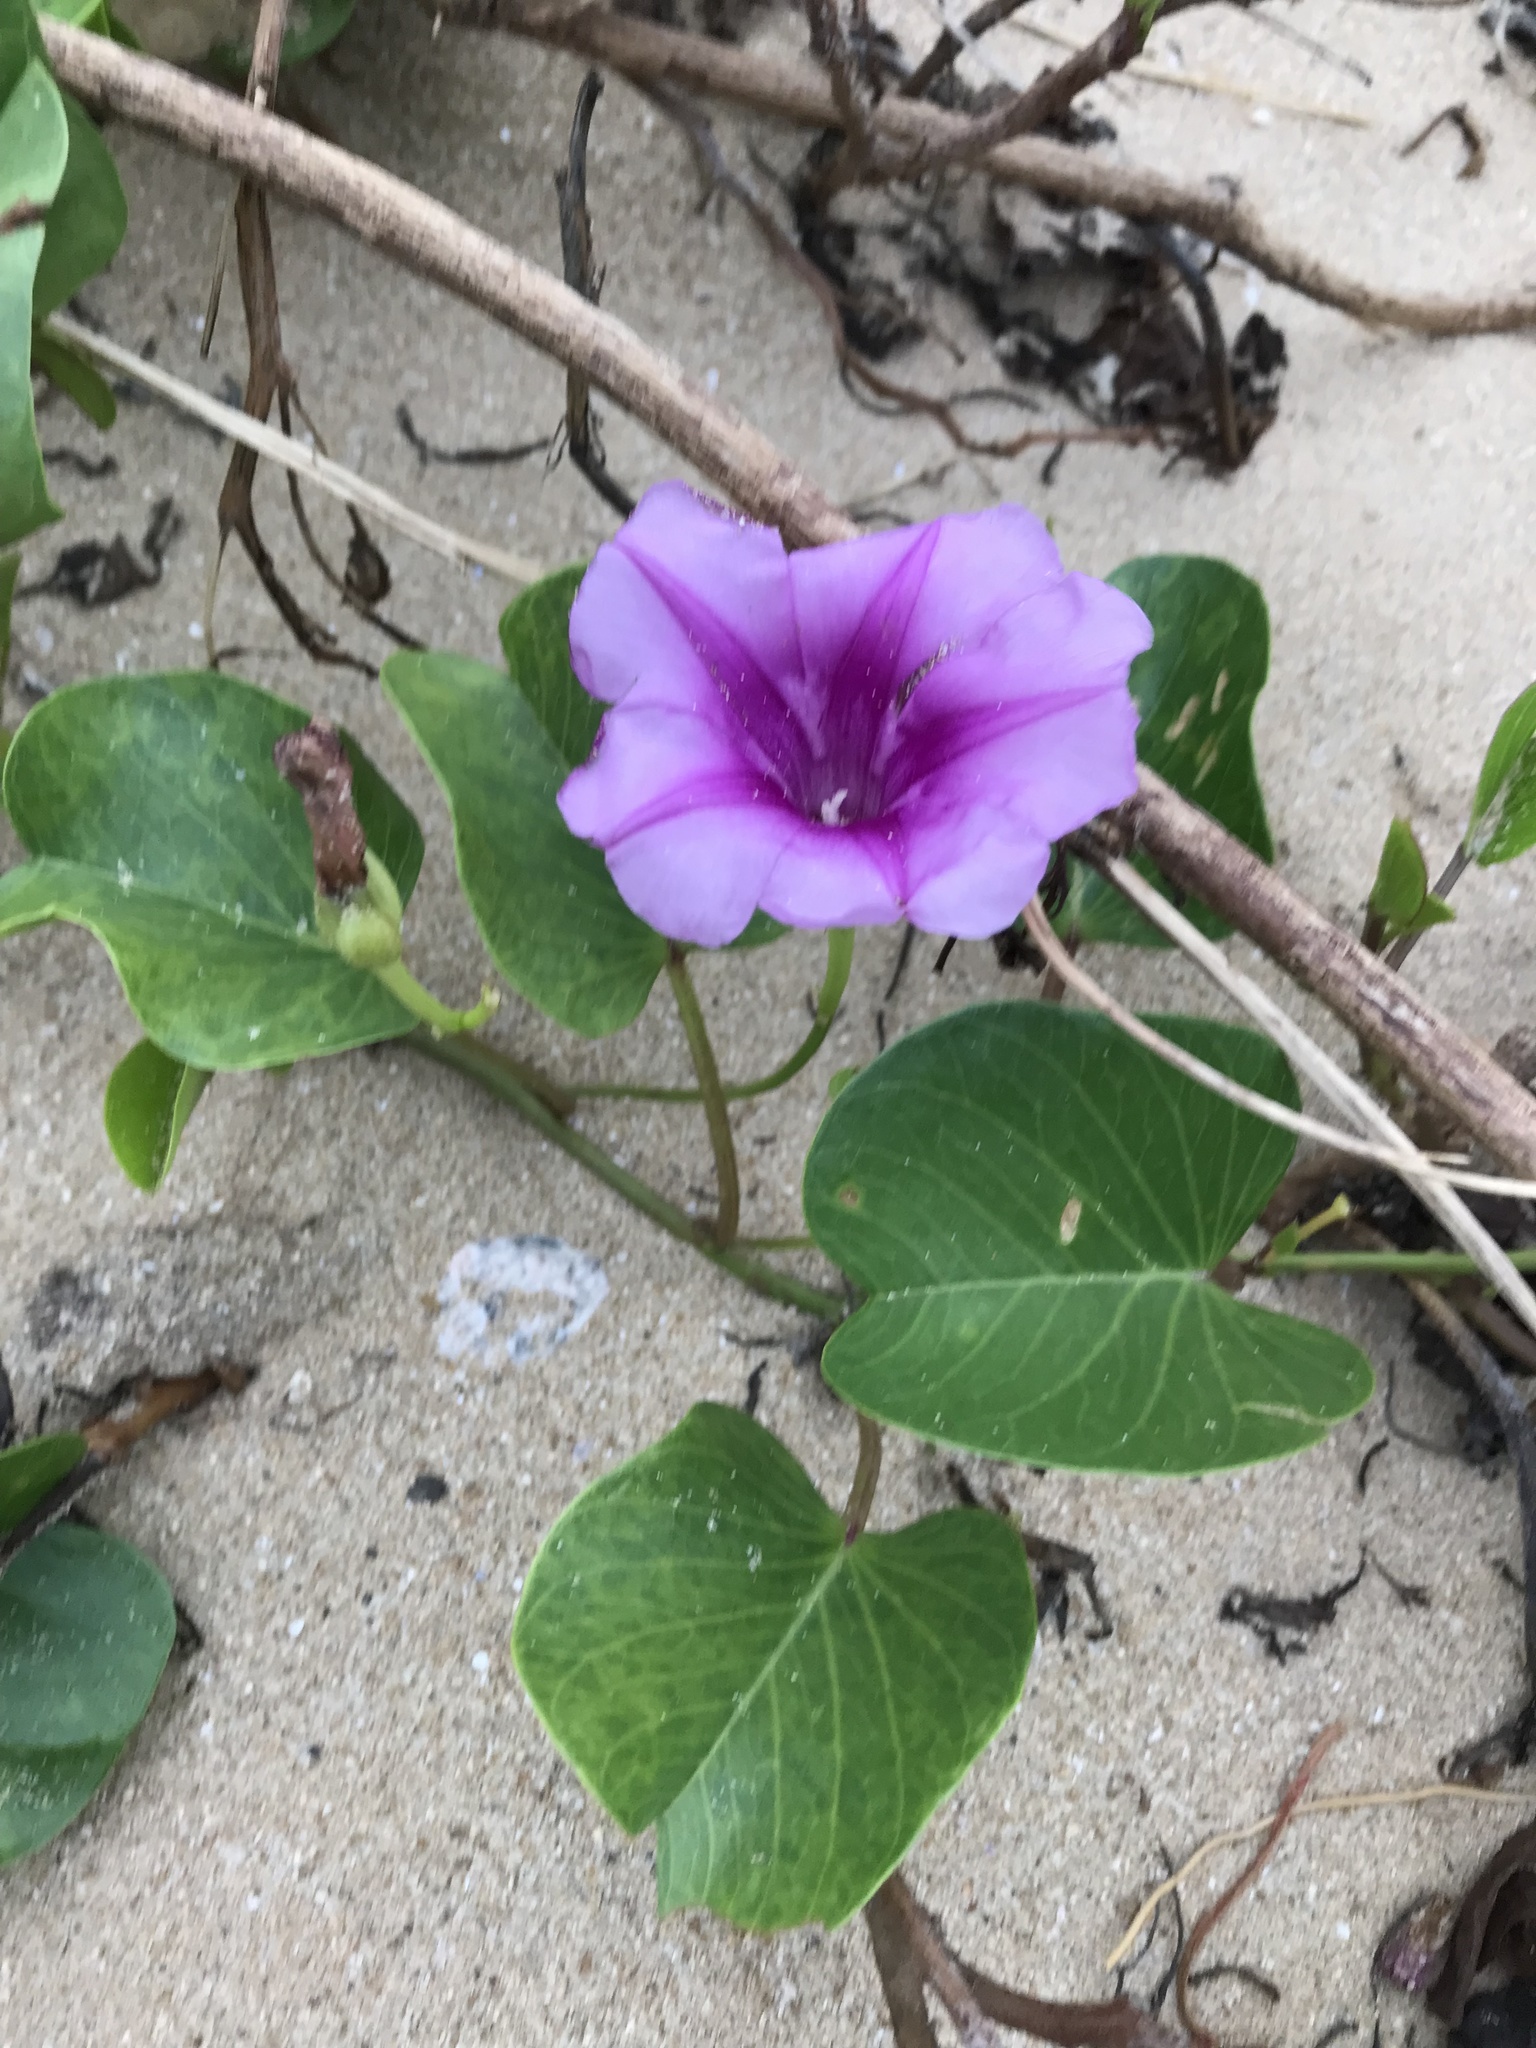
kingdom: Plantae
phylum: Tracheophyta
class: Magnoliopsida
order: Solanales
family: Convolvulaceae
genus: Ipomoea
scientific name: Ipomoea pes-caprae
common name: Beach morning glory
